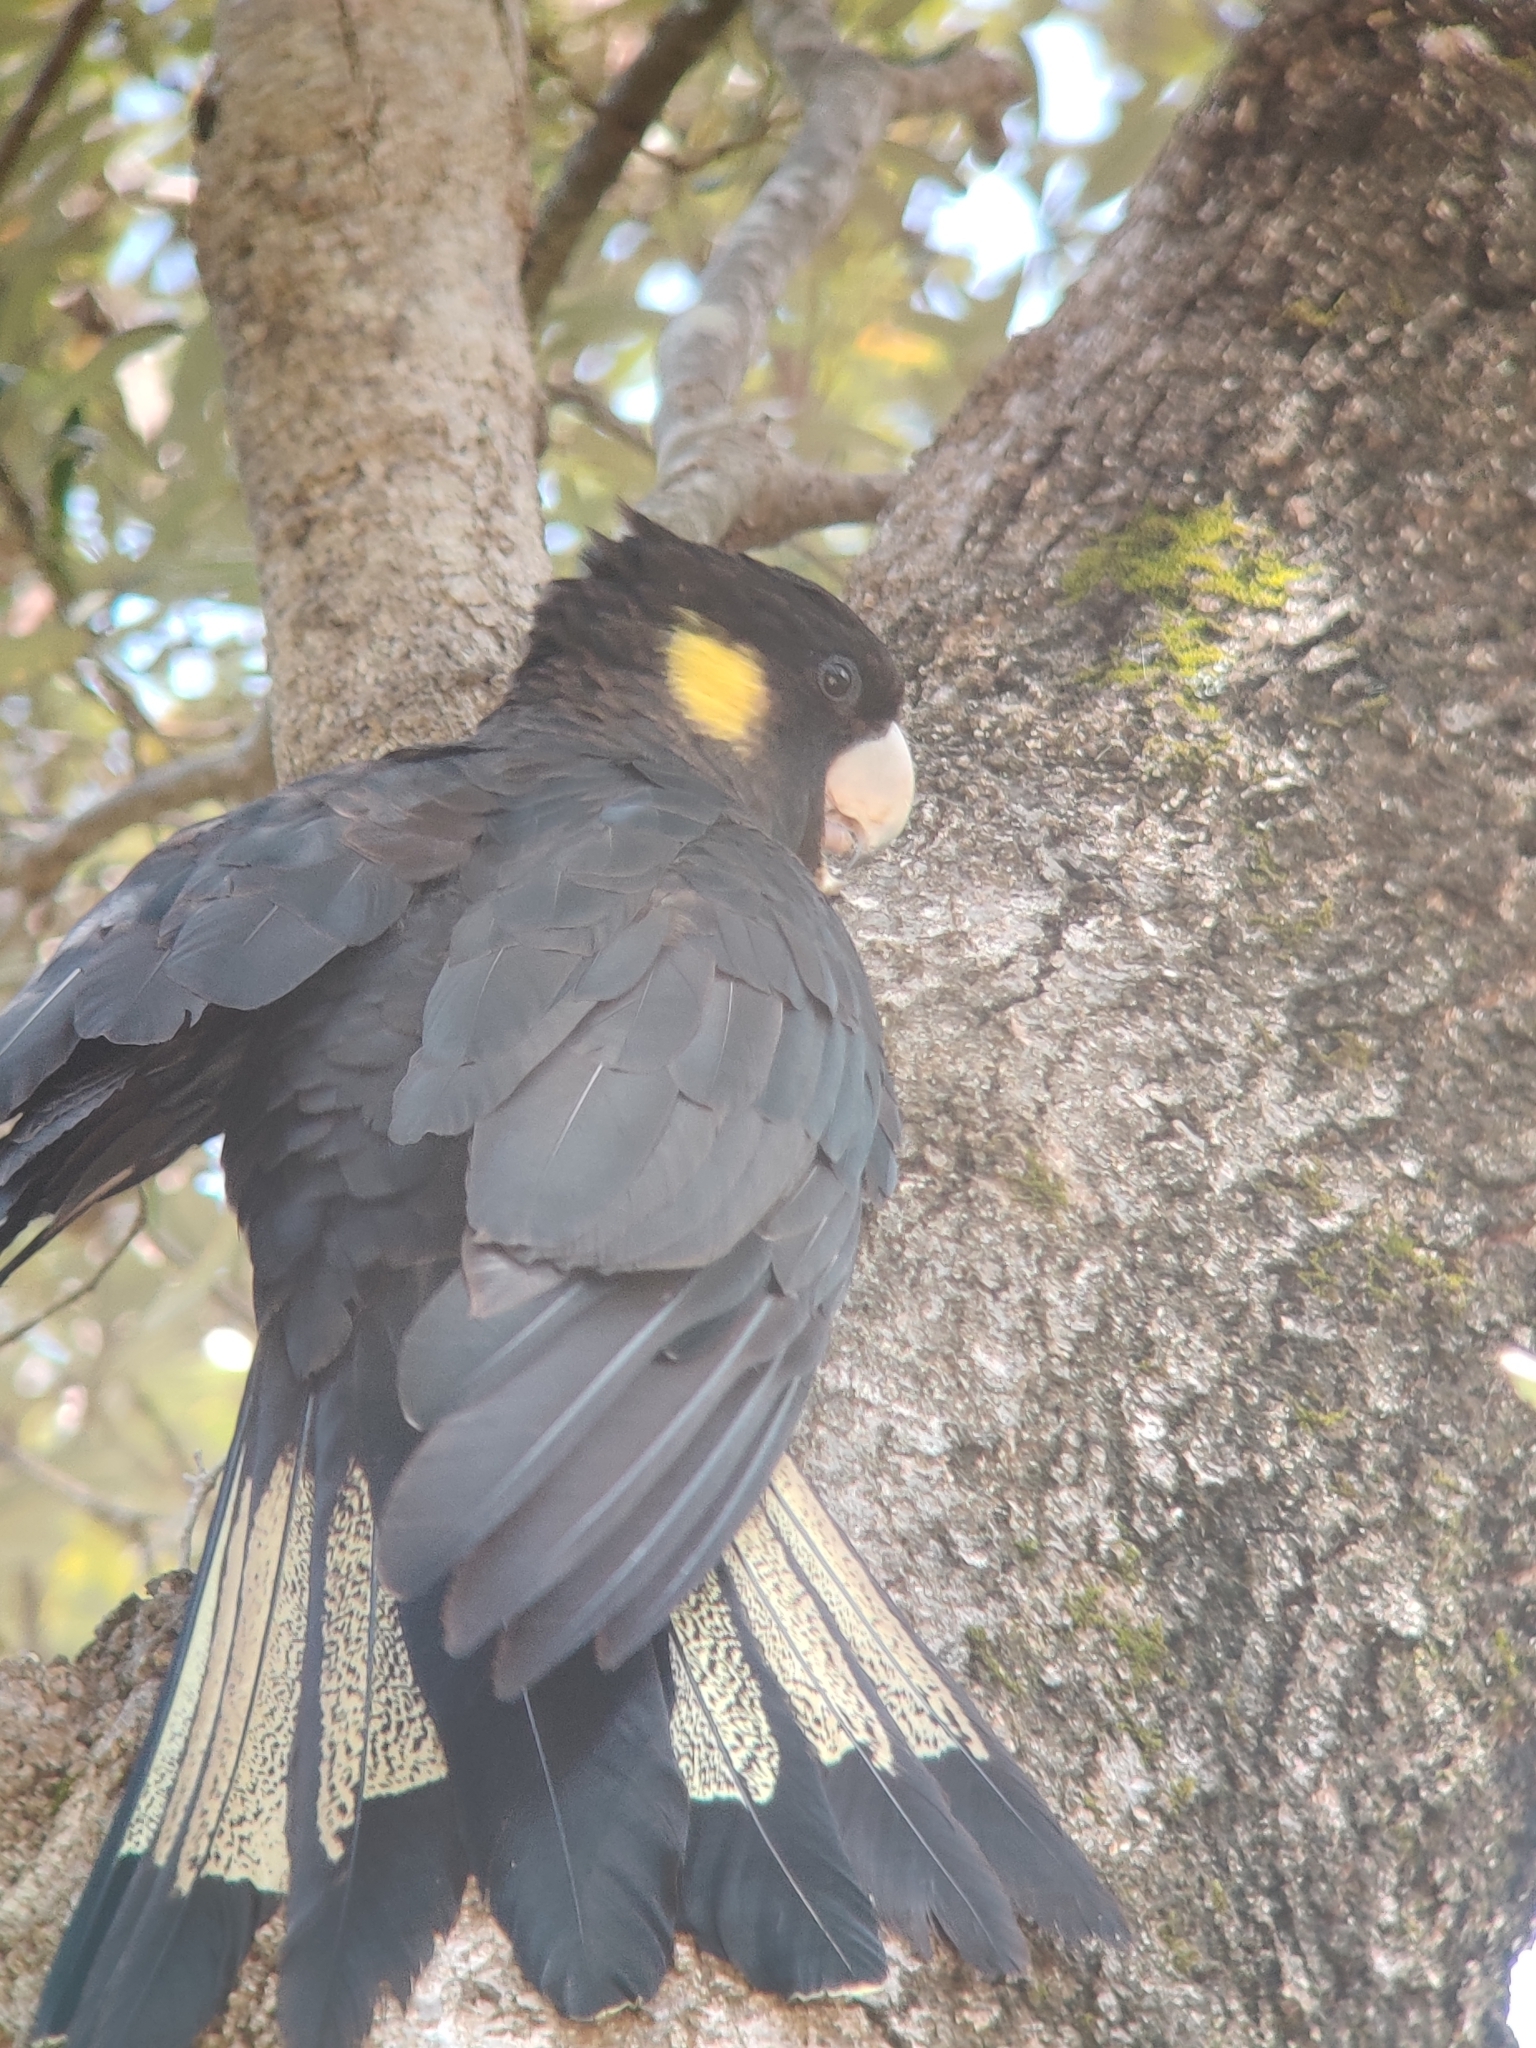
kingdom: Animalia
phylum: Chordata
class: Aves
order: Psittaciformes
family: Cacatuidae
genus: Zanda
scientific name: Zanda funerea
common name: Yellow-tailed black-cockatoo
